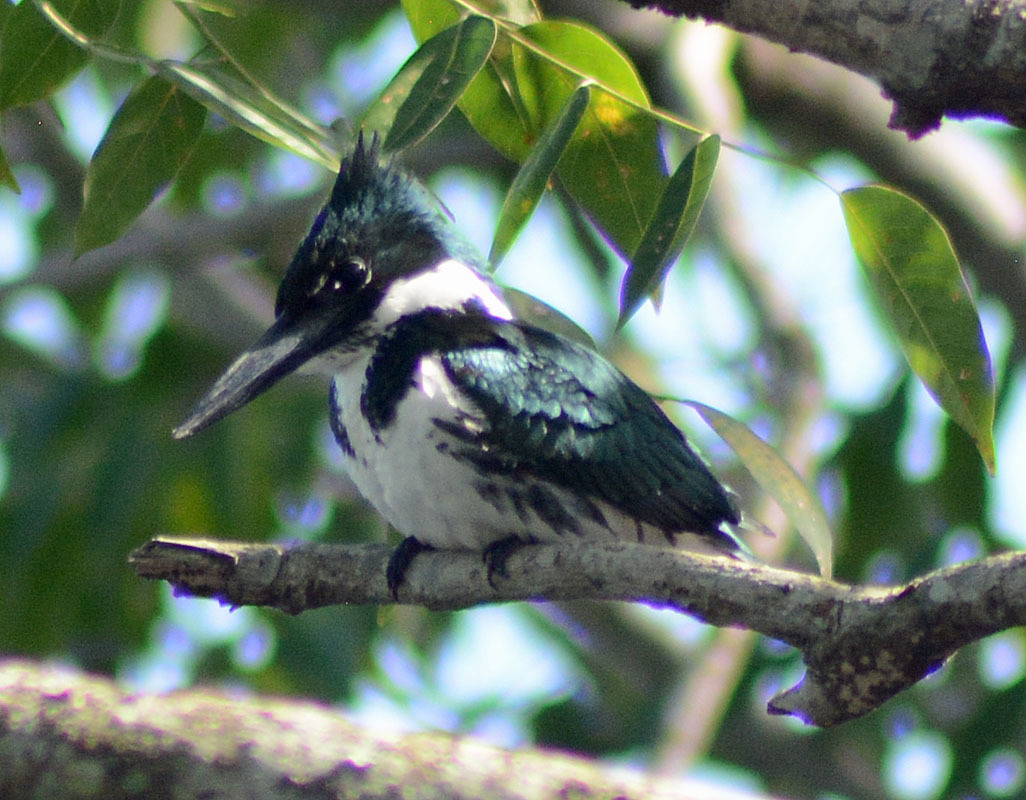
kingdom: Animalia
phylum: Chordata
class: Aves
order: Coraciiformes
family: Alcedinidae
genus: Chloroceryle
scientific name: Chloroceryle amazona
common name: Amazon kingfisher
